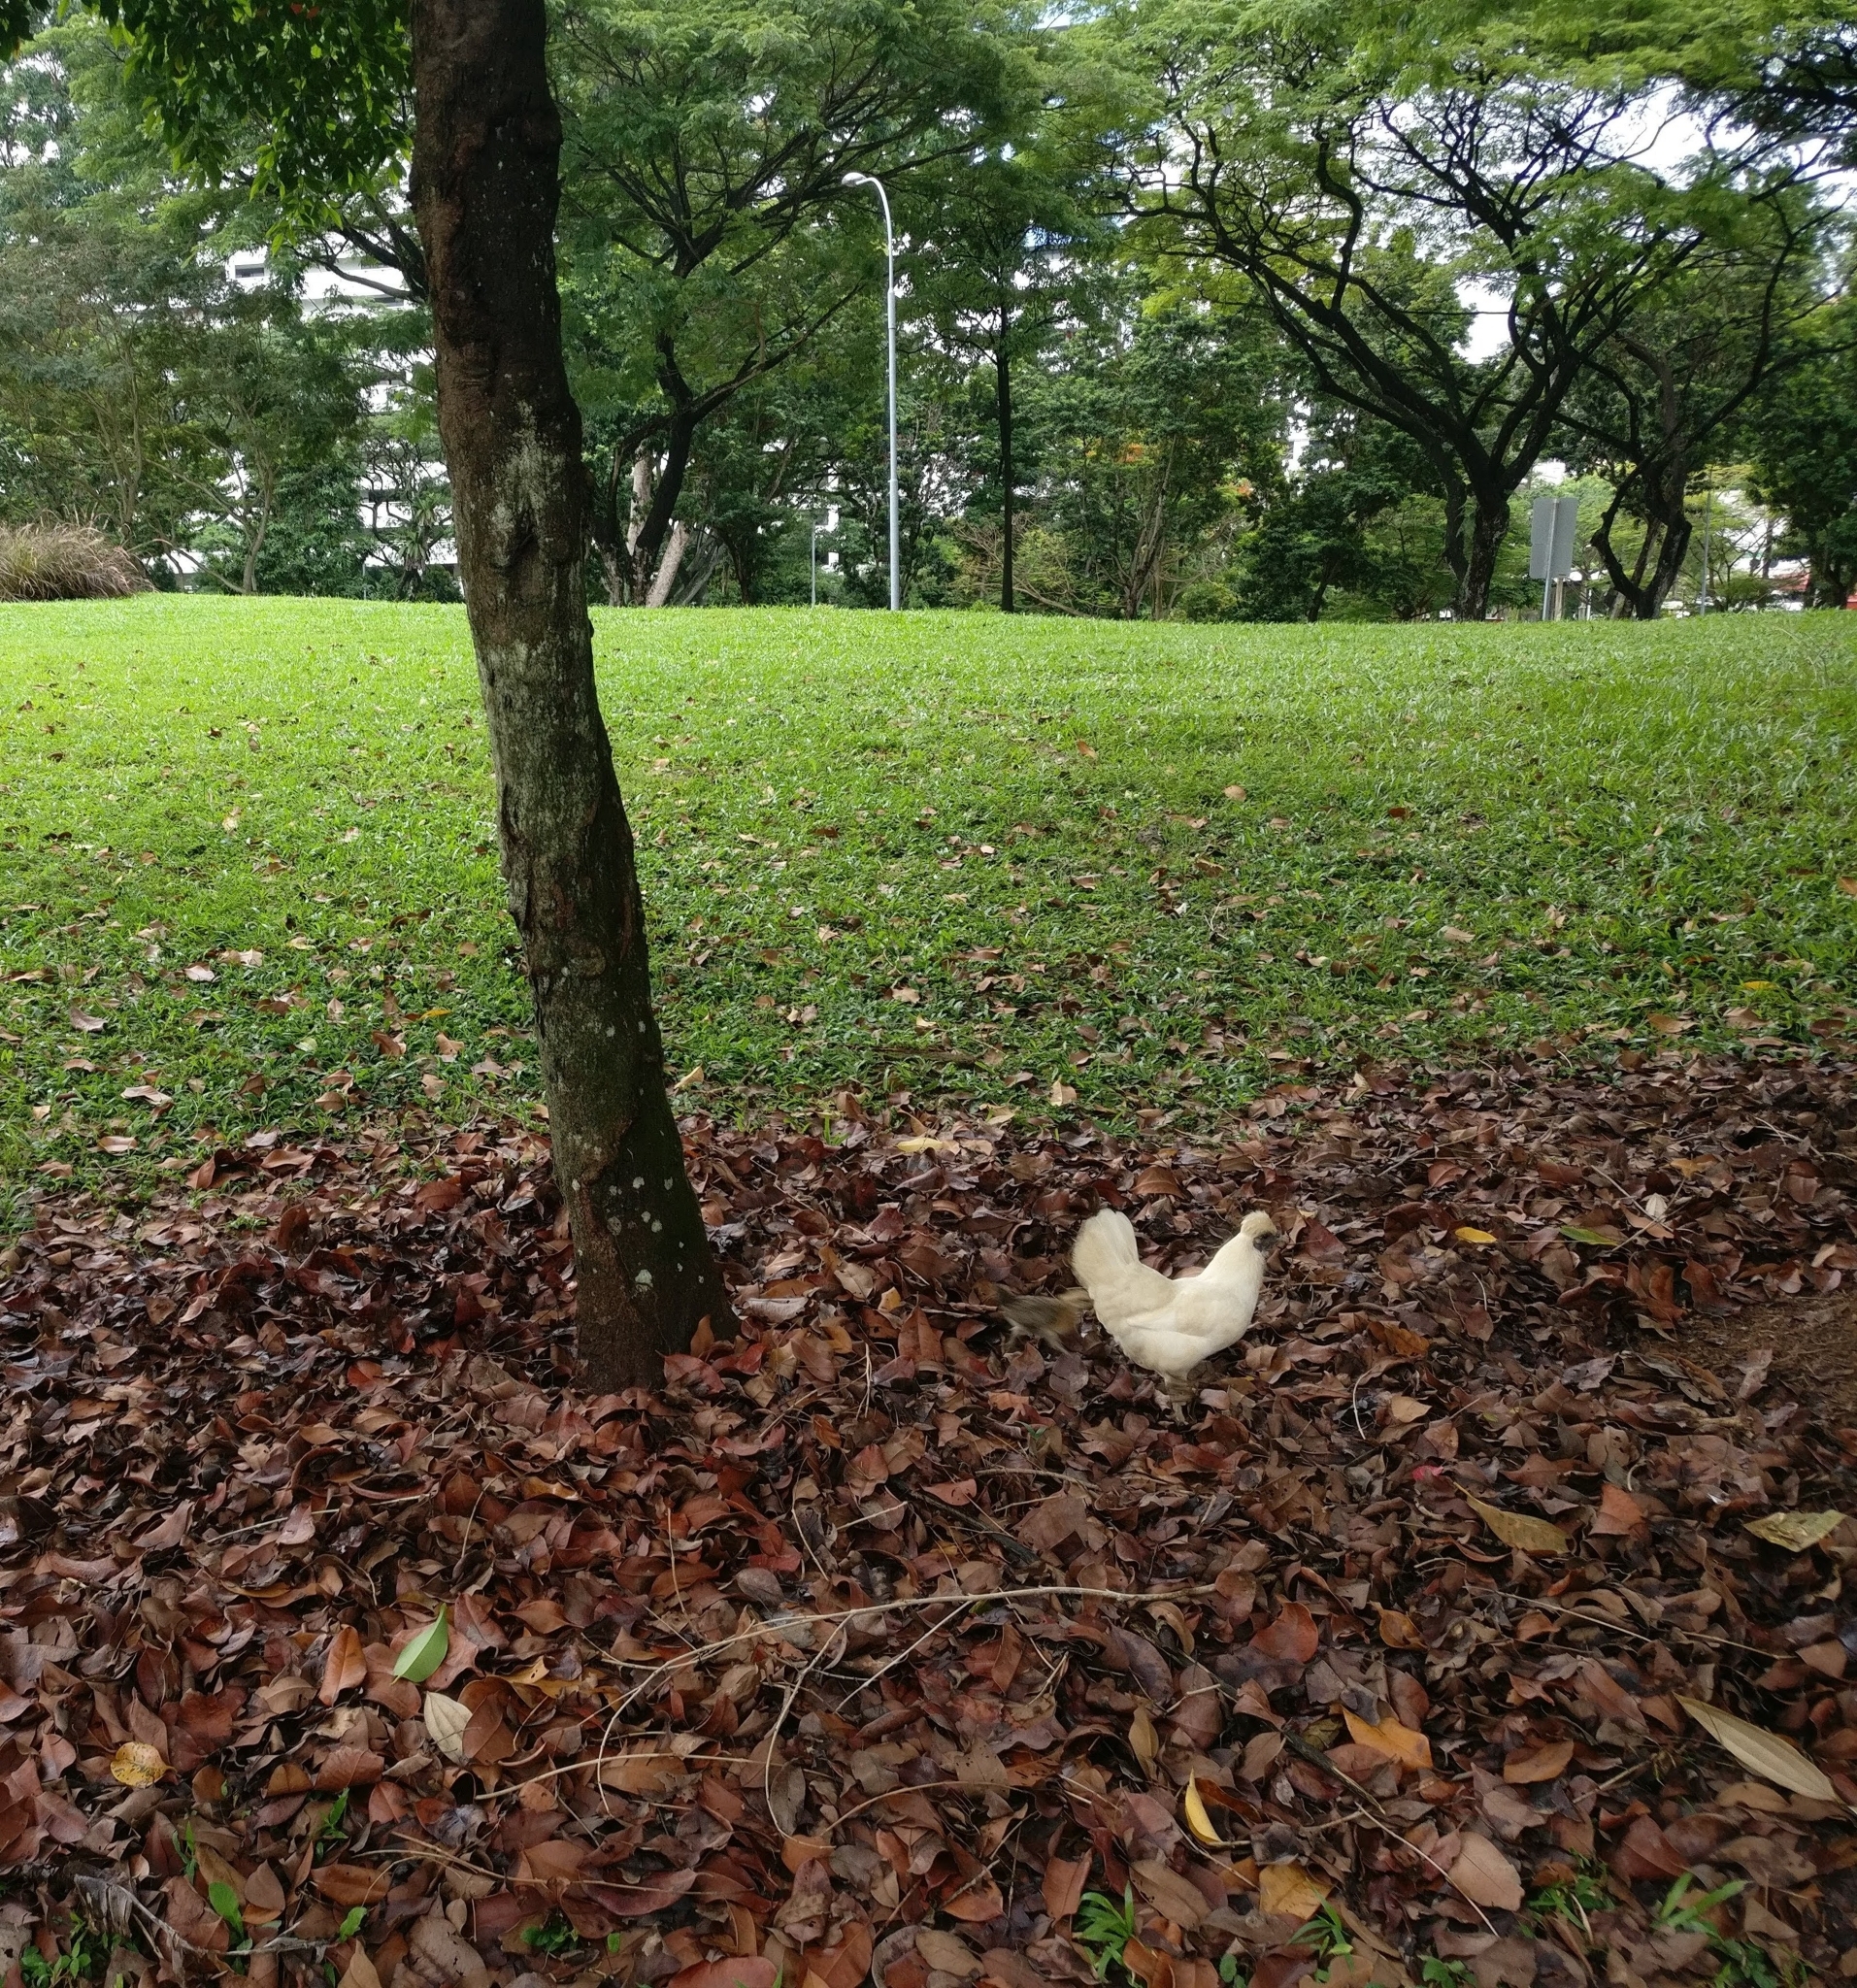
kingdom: Animalia
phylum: Chordata
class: Aves
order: Galliformes
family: Phasianidae
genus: Gallus
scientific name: Gallus gallus
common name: Red junglefowl
